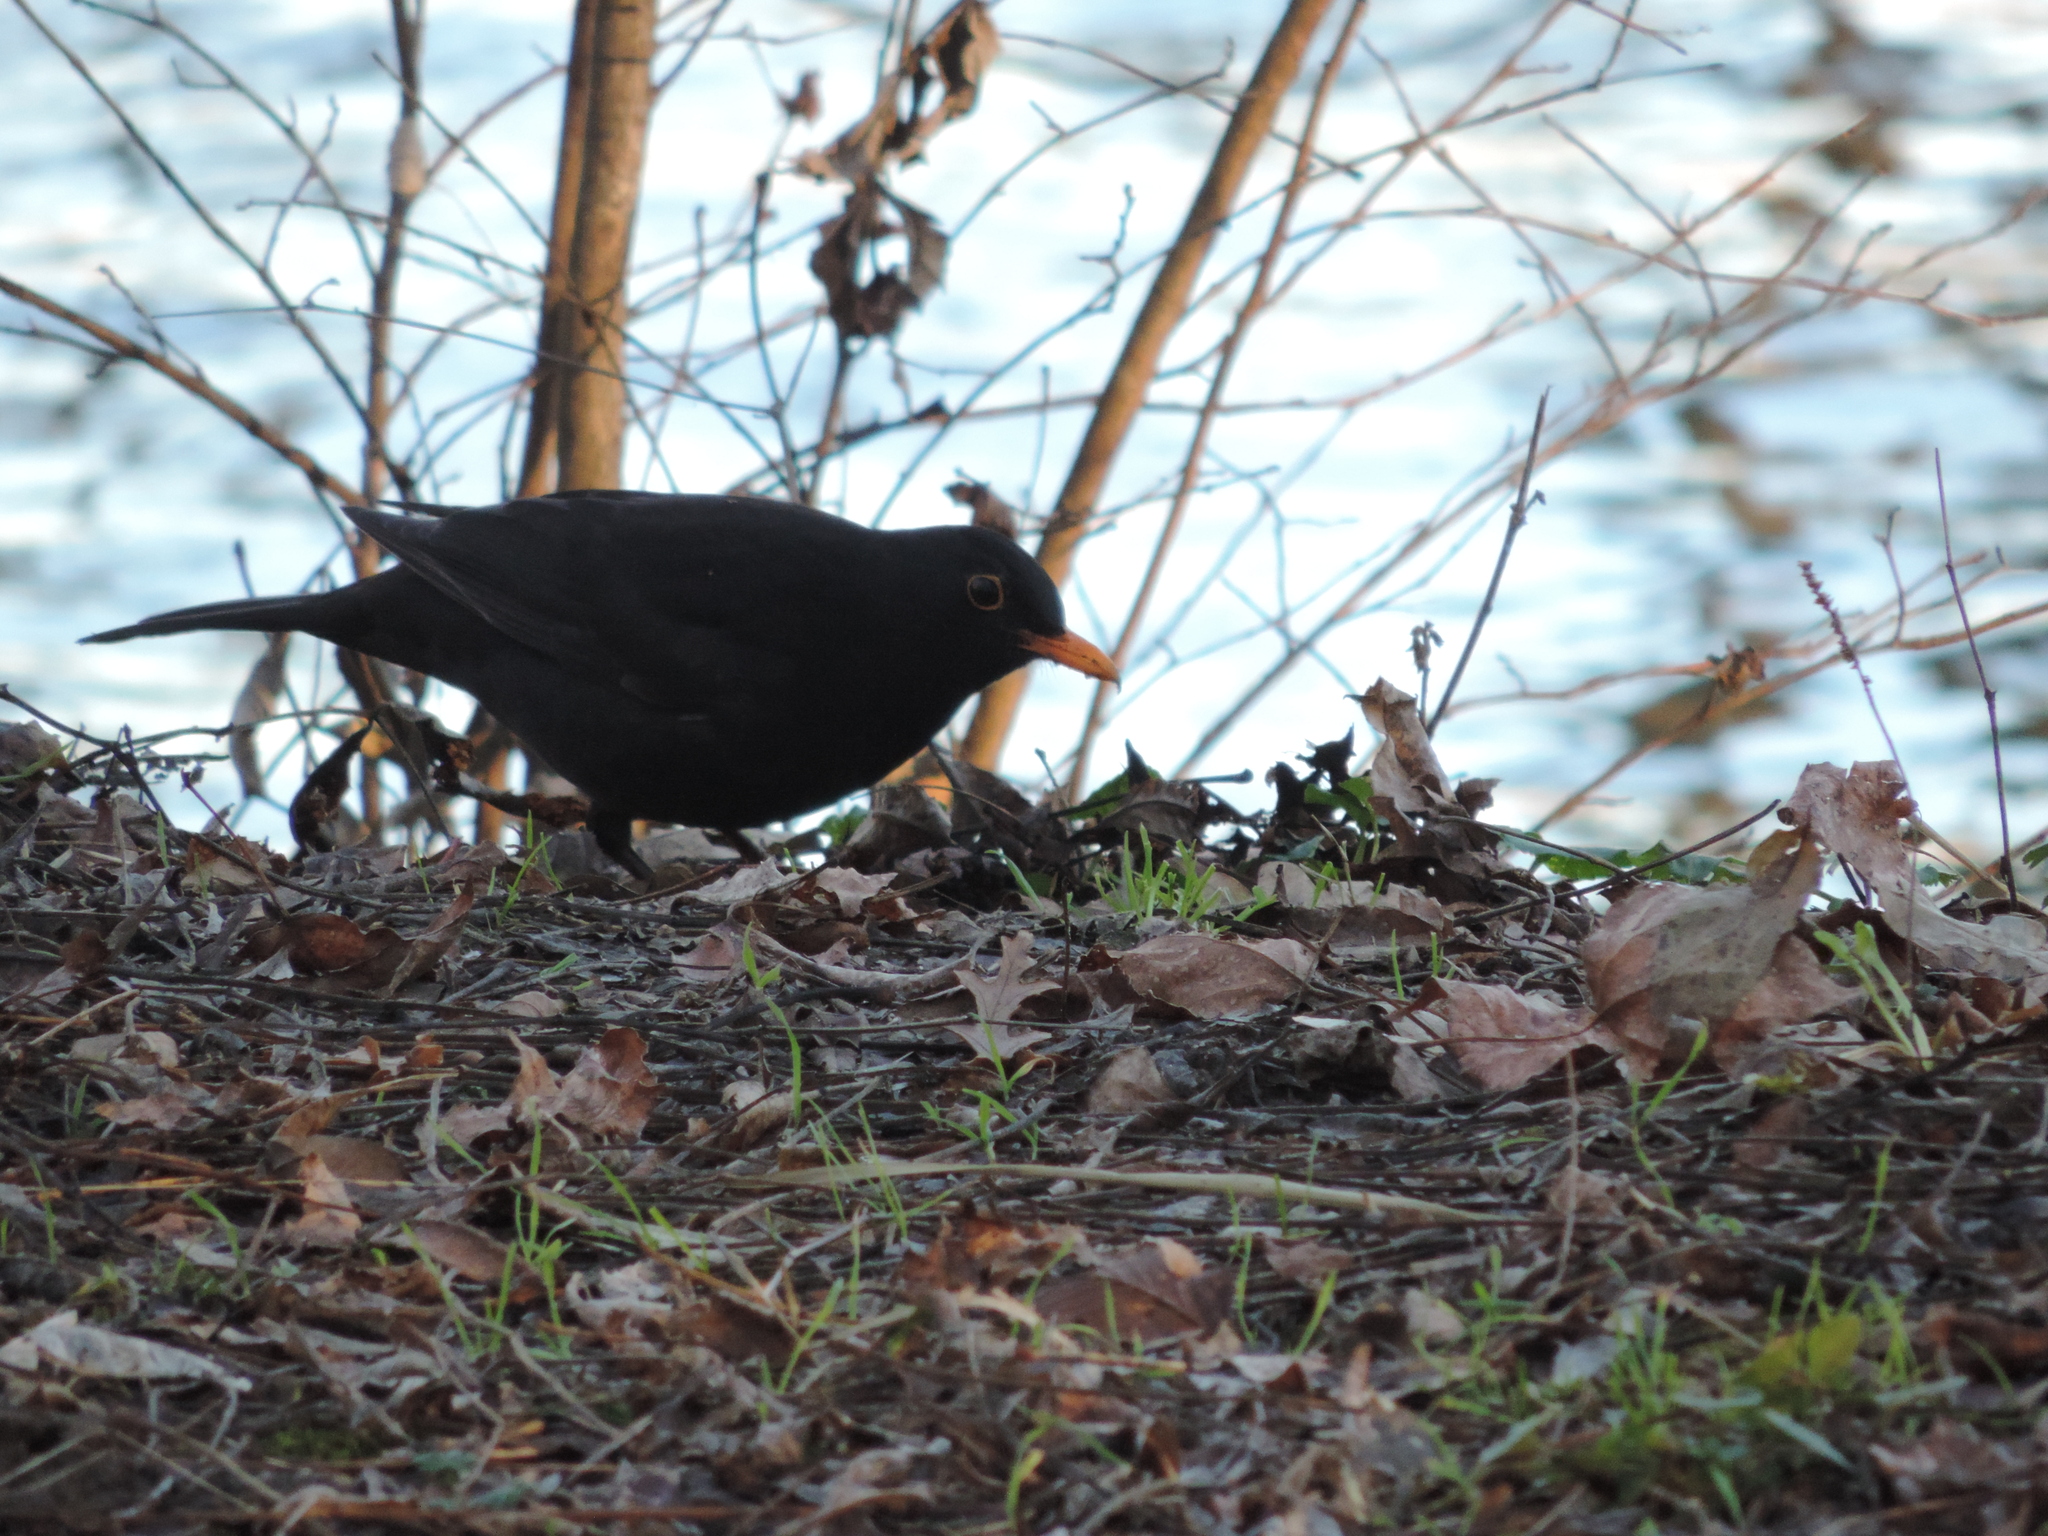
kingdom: Animalia
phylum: Chordata
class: Aves
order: Passeriformes
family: Turdidae
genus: Turdus
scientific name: Turdus merula
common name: Common blackbird
